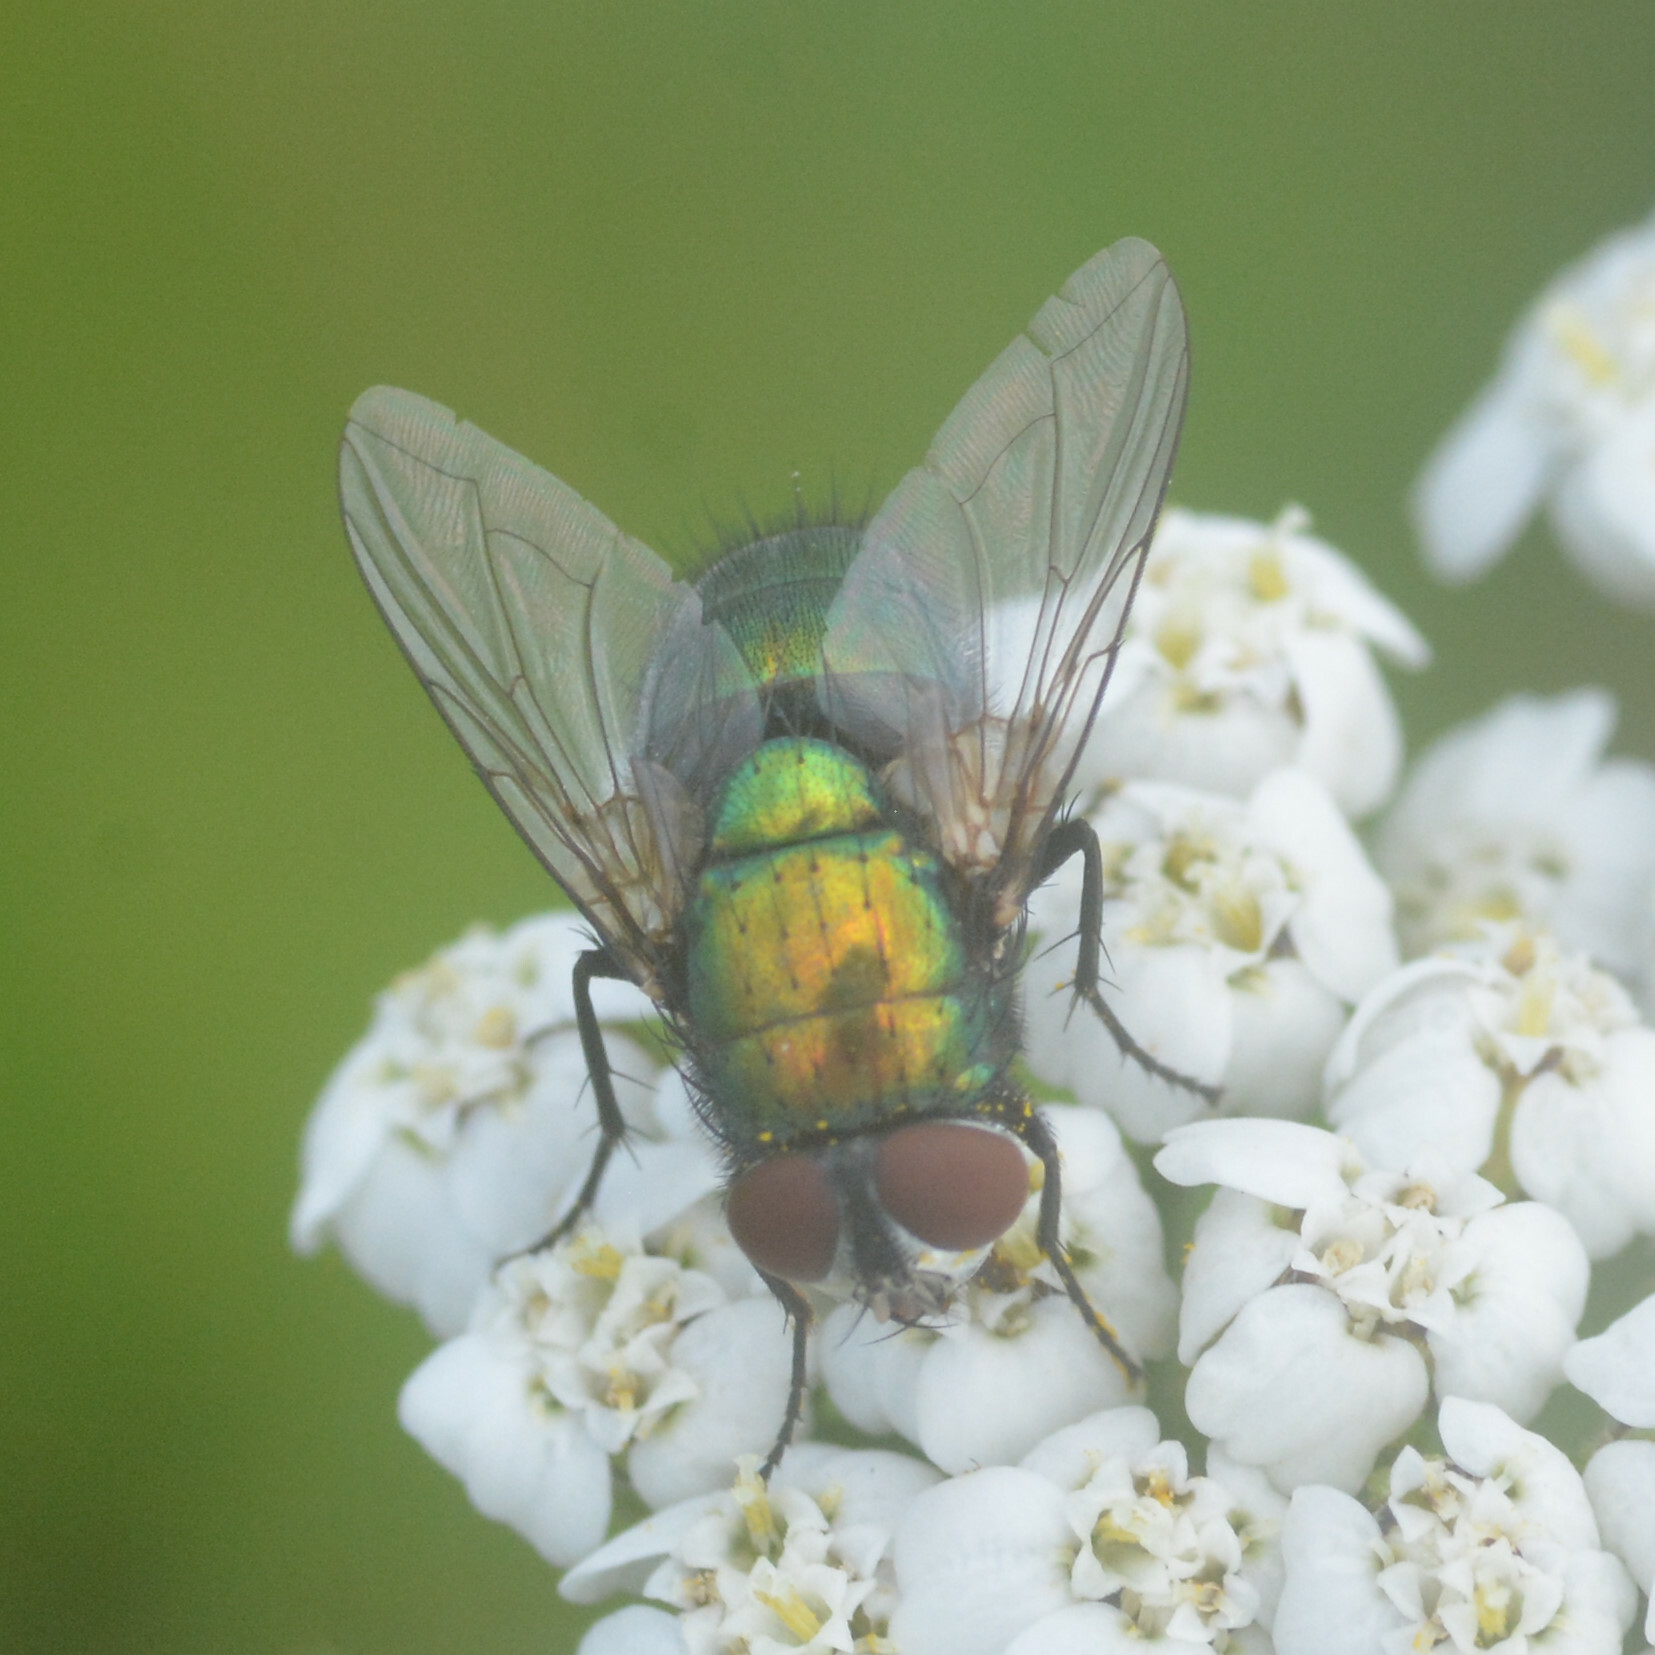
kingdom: Animalia
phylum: Arthropoda
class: Insecta
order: Diptera
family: Calliphoridae
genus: Lucilia
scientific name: Lucilia sericata
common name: Blow fly
